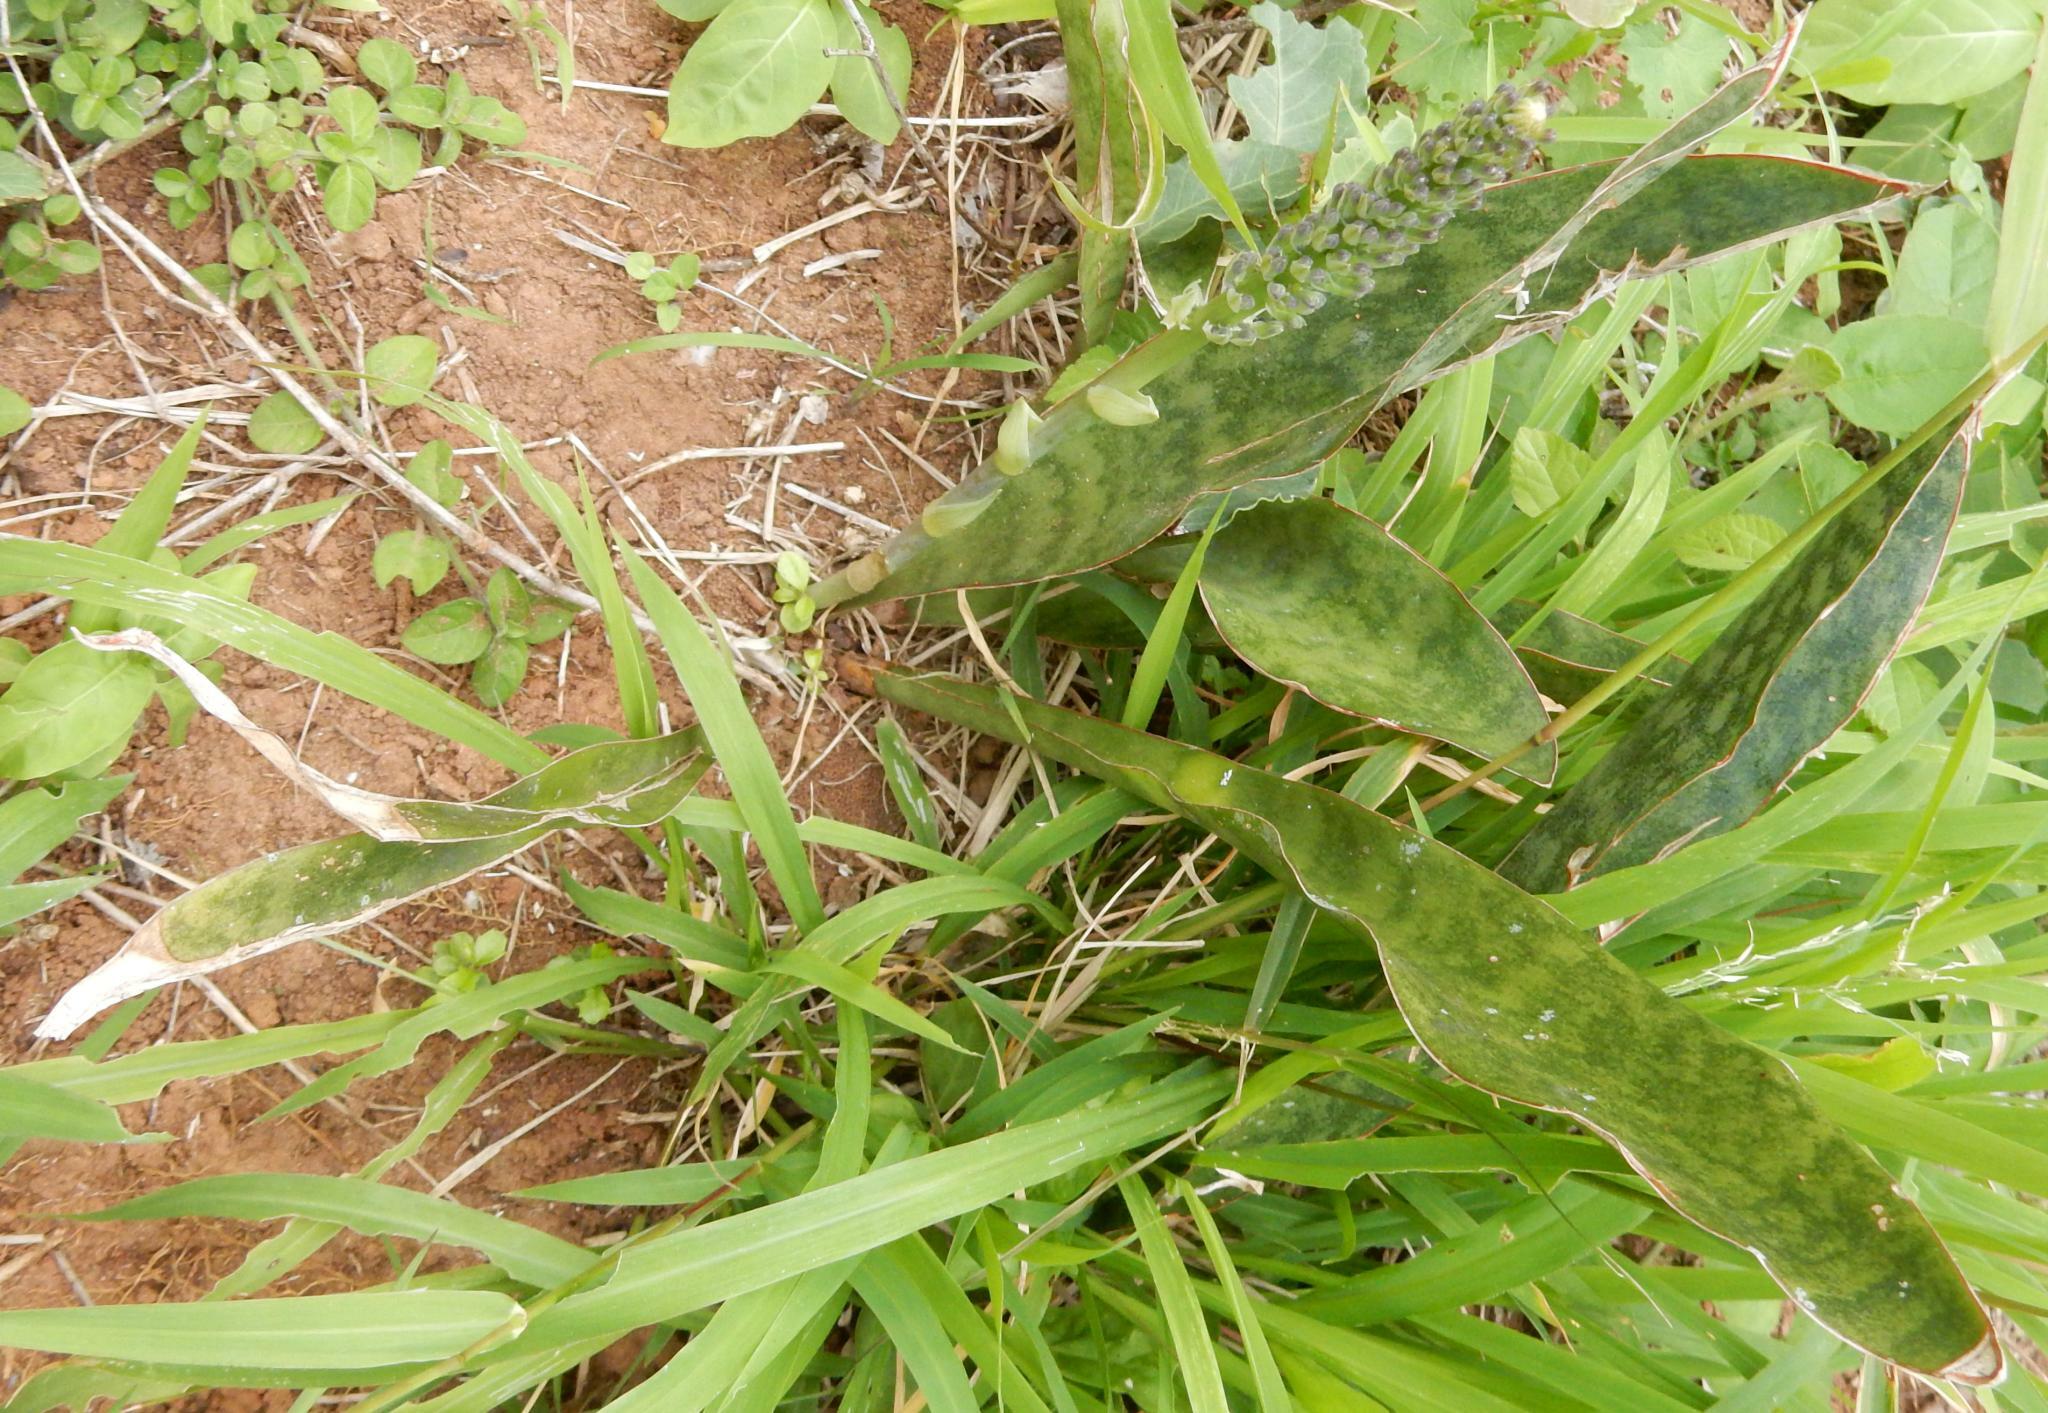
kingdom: Plantae
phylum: Tracheophyta
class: Liliopsida
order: Asparagales
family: Asparagaceae
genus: Dracaena
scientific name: Dracaena hyacinthoides
